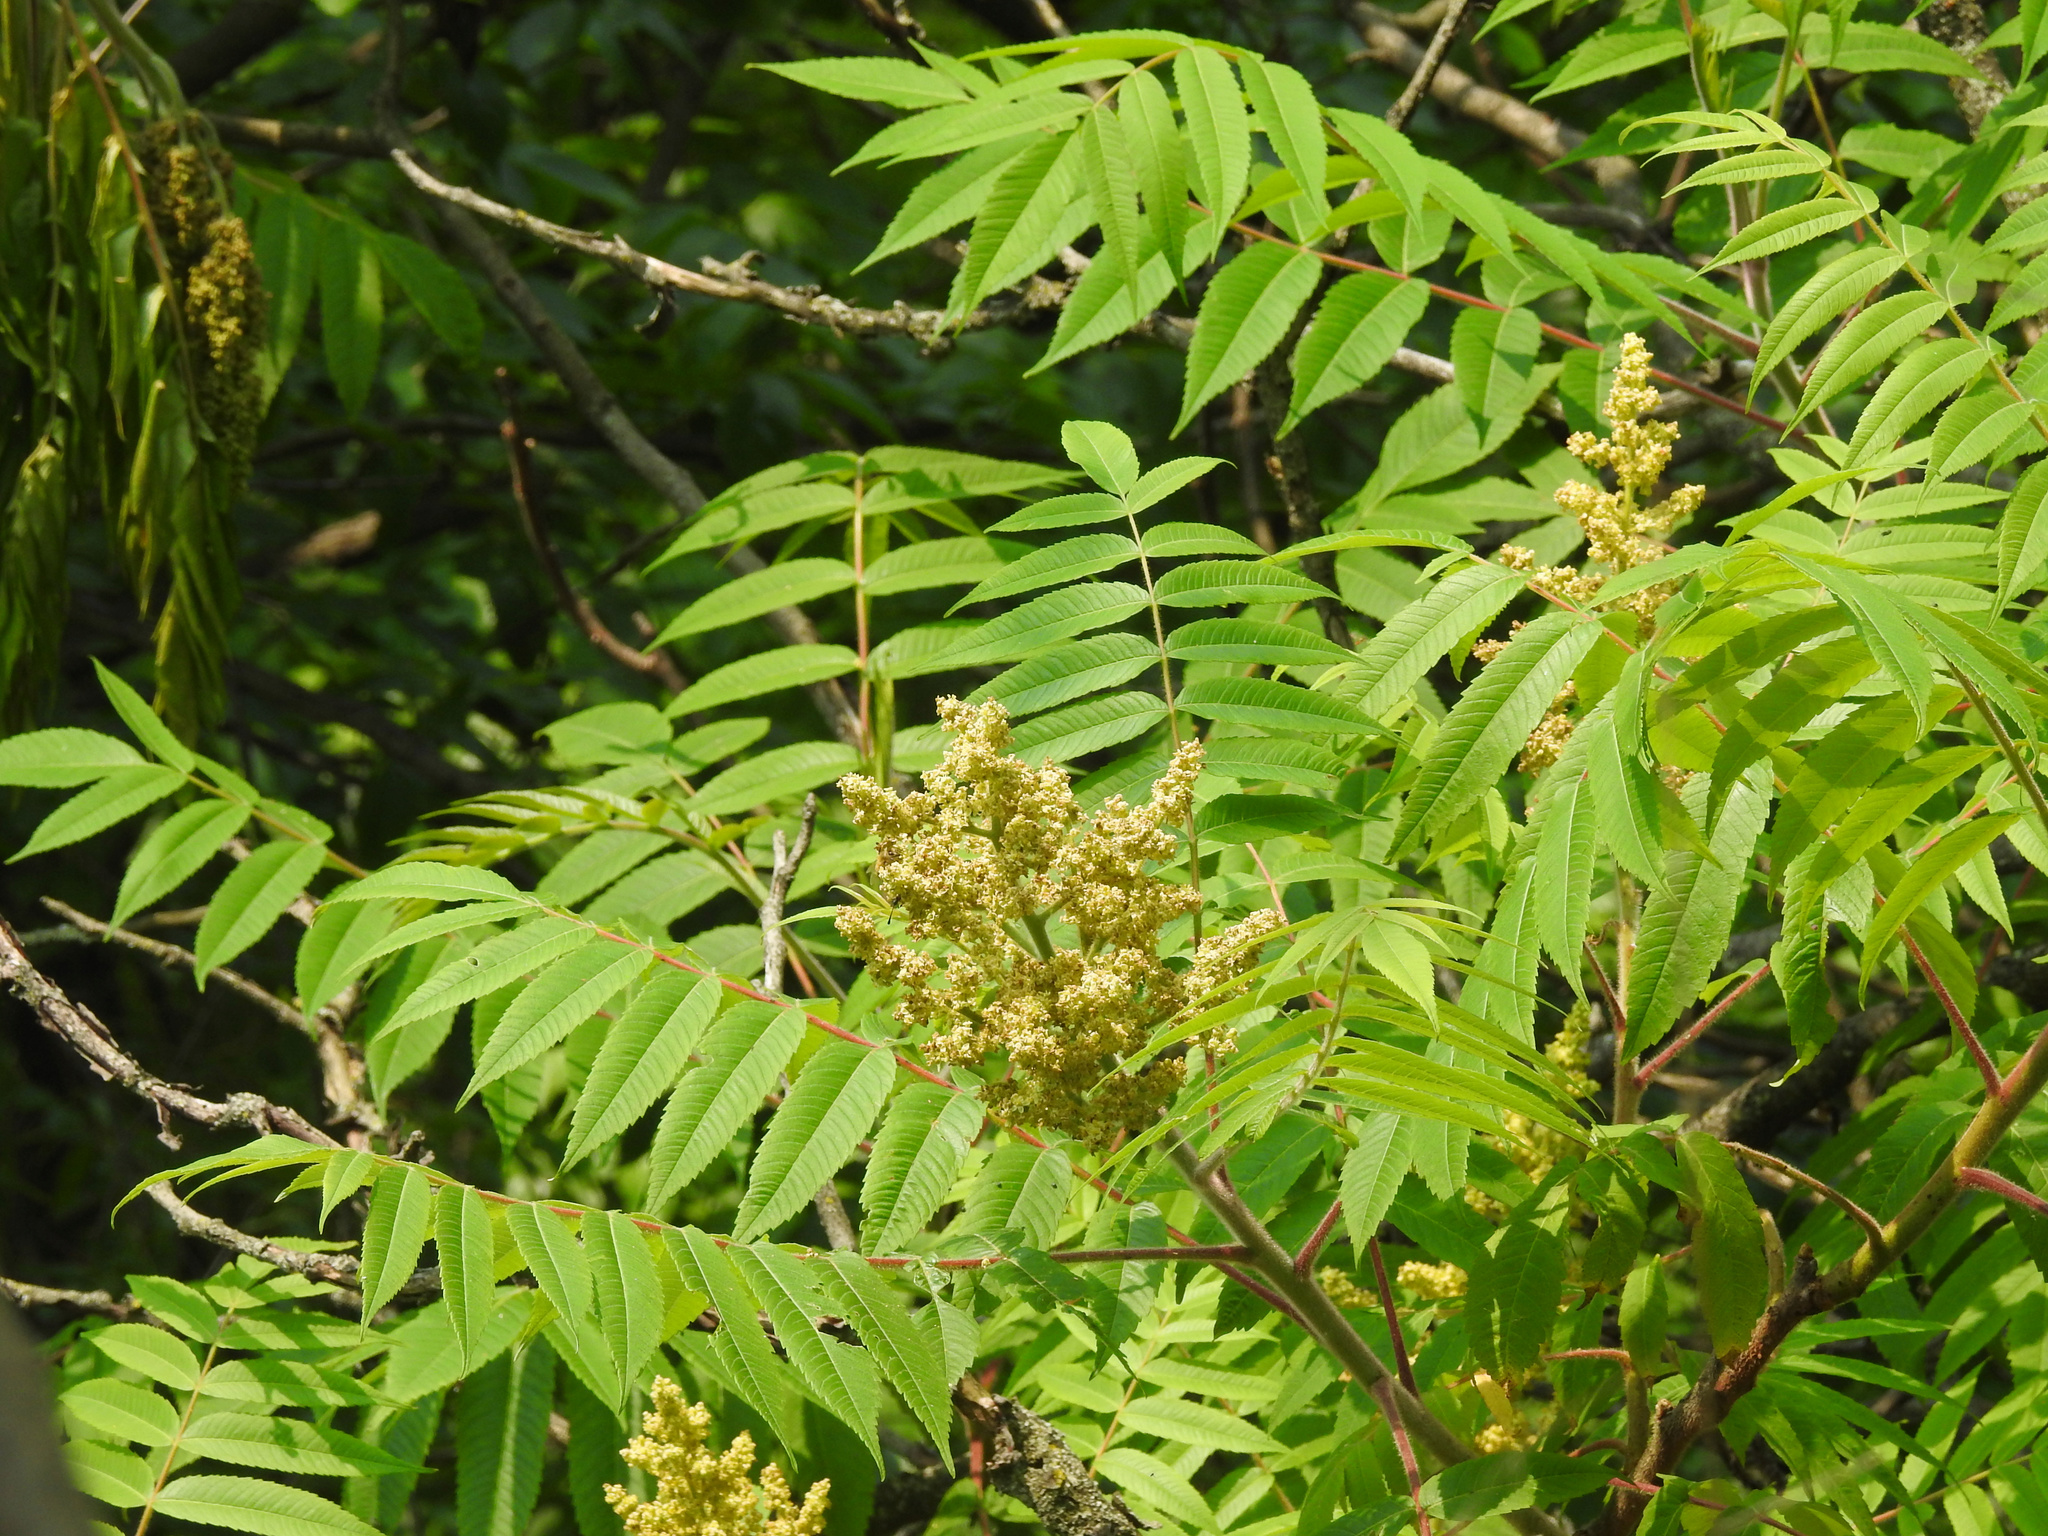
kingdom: Plantae
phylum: Tracheophyta
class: Magnoliopsida
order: Sapindales
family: Anacardiaceae
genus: Rhus
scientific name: Rhus typhina
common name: Staghorn sumac
